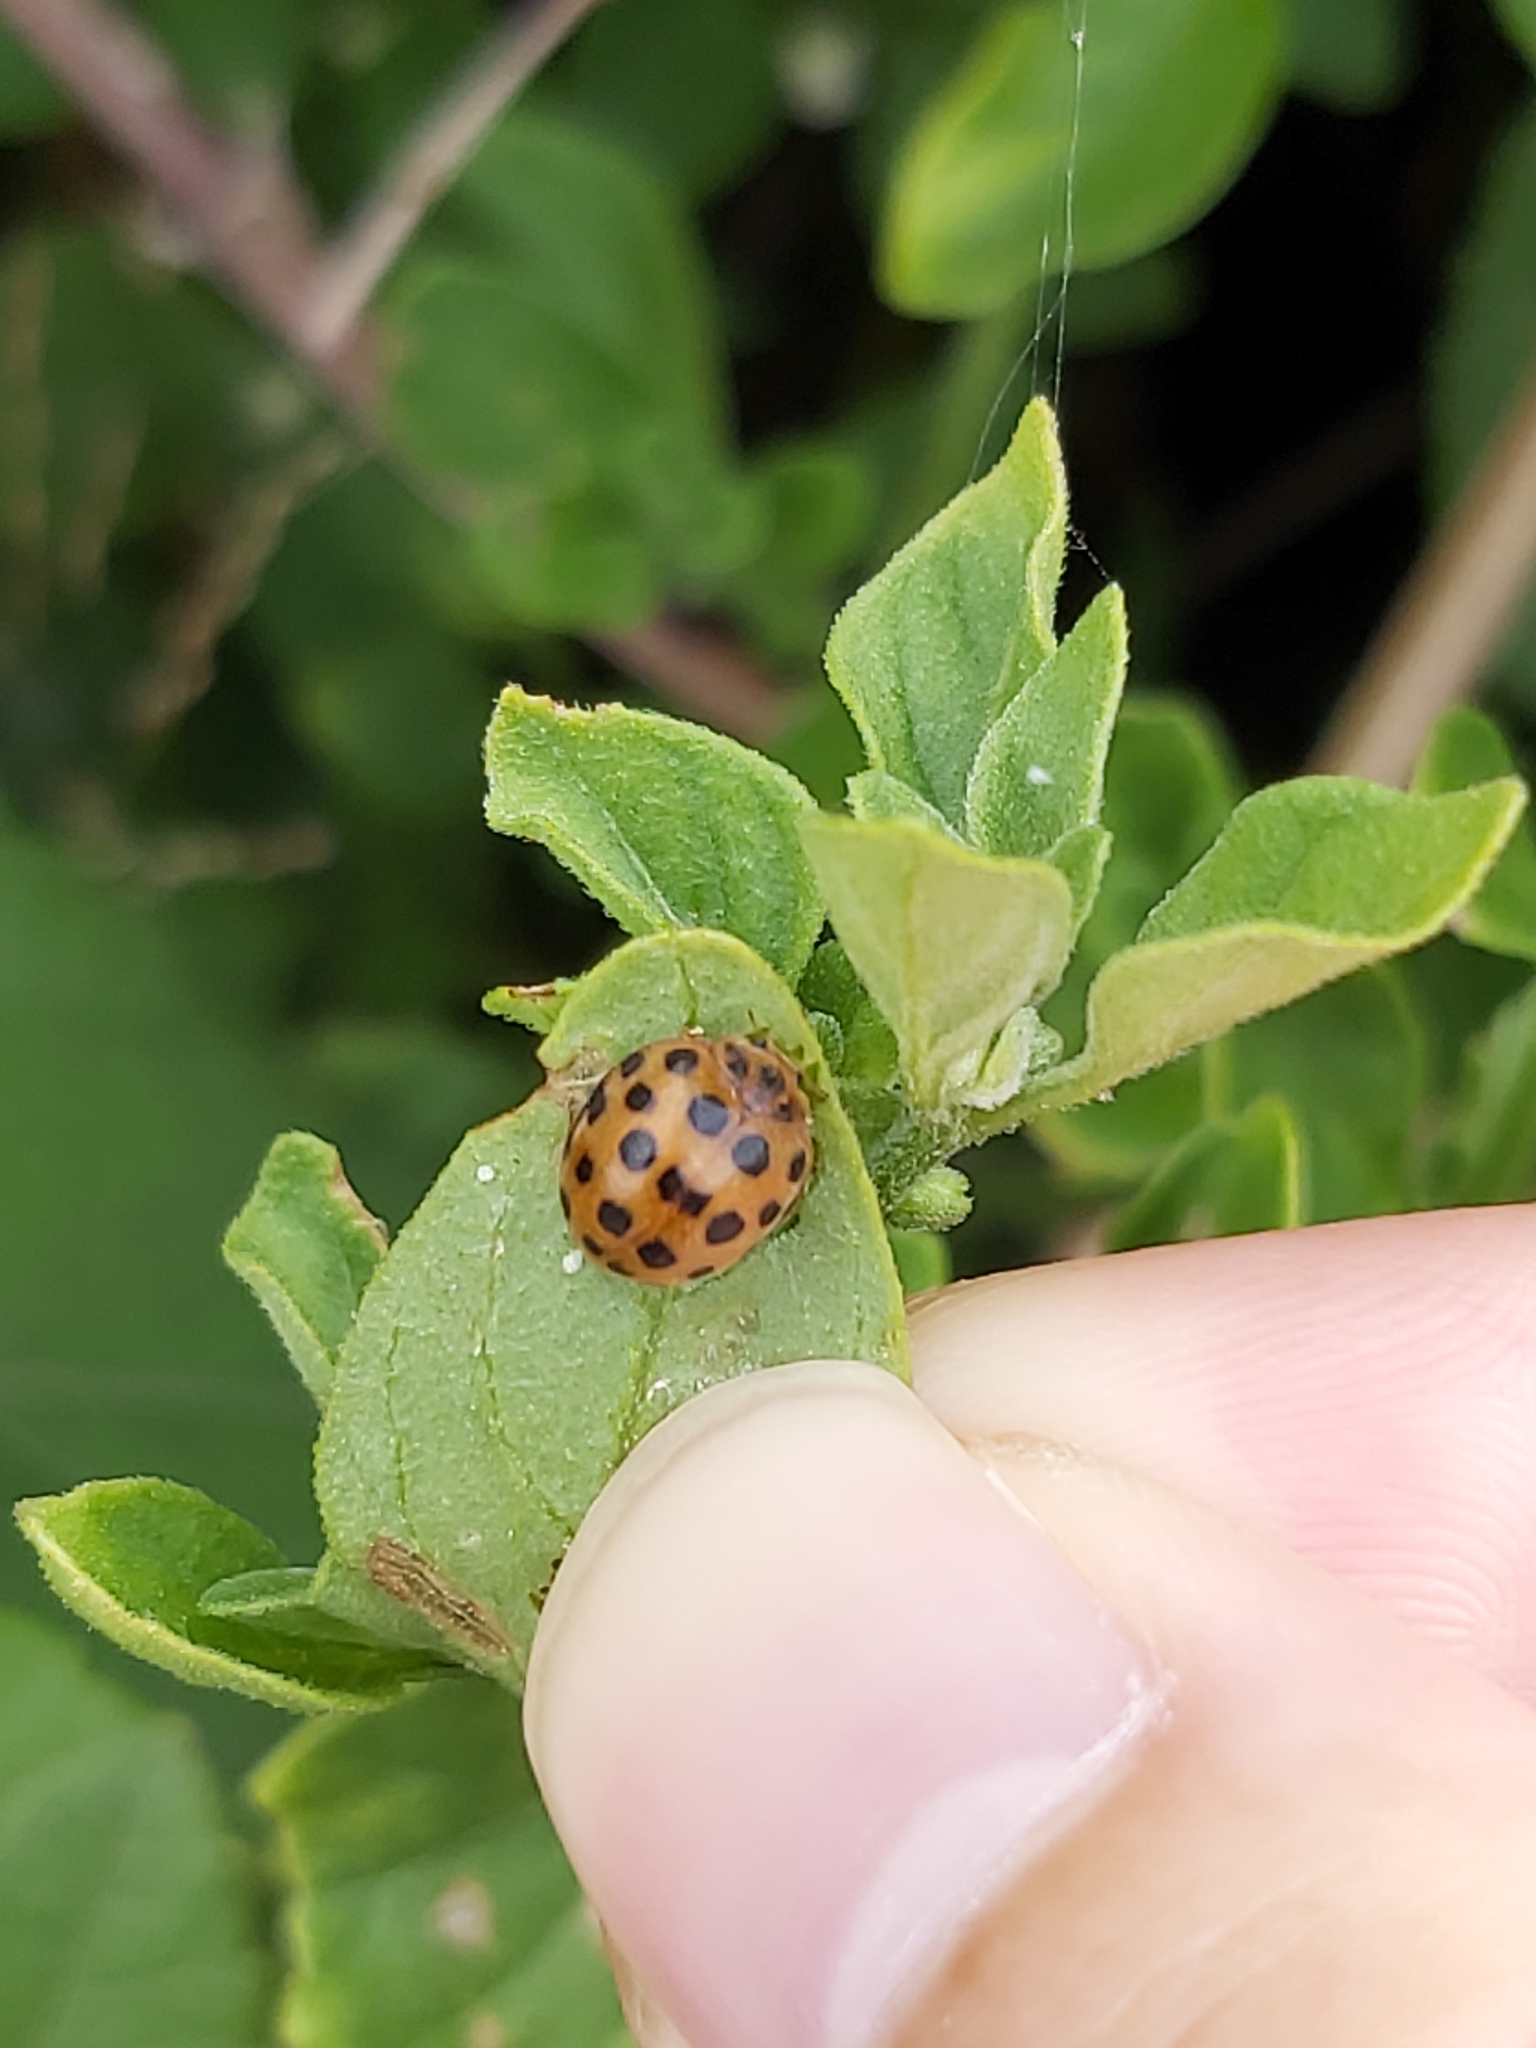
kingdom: Animalia
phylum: Arthropoda
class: Insecta
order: Coleoptera
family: Coccinellidae
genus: Henosepilachna
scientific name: Henosepilachna vigintioctopunctata
